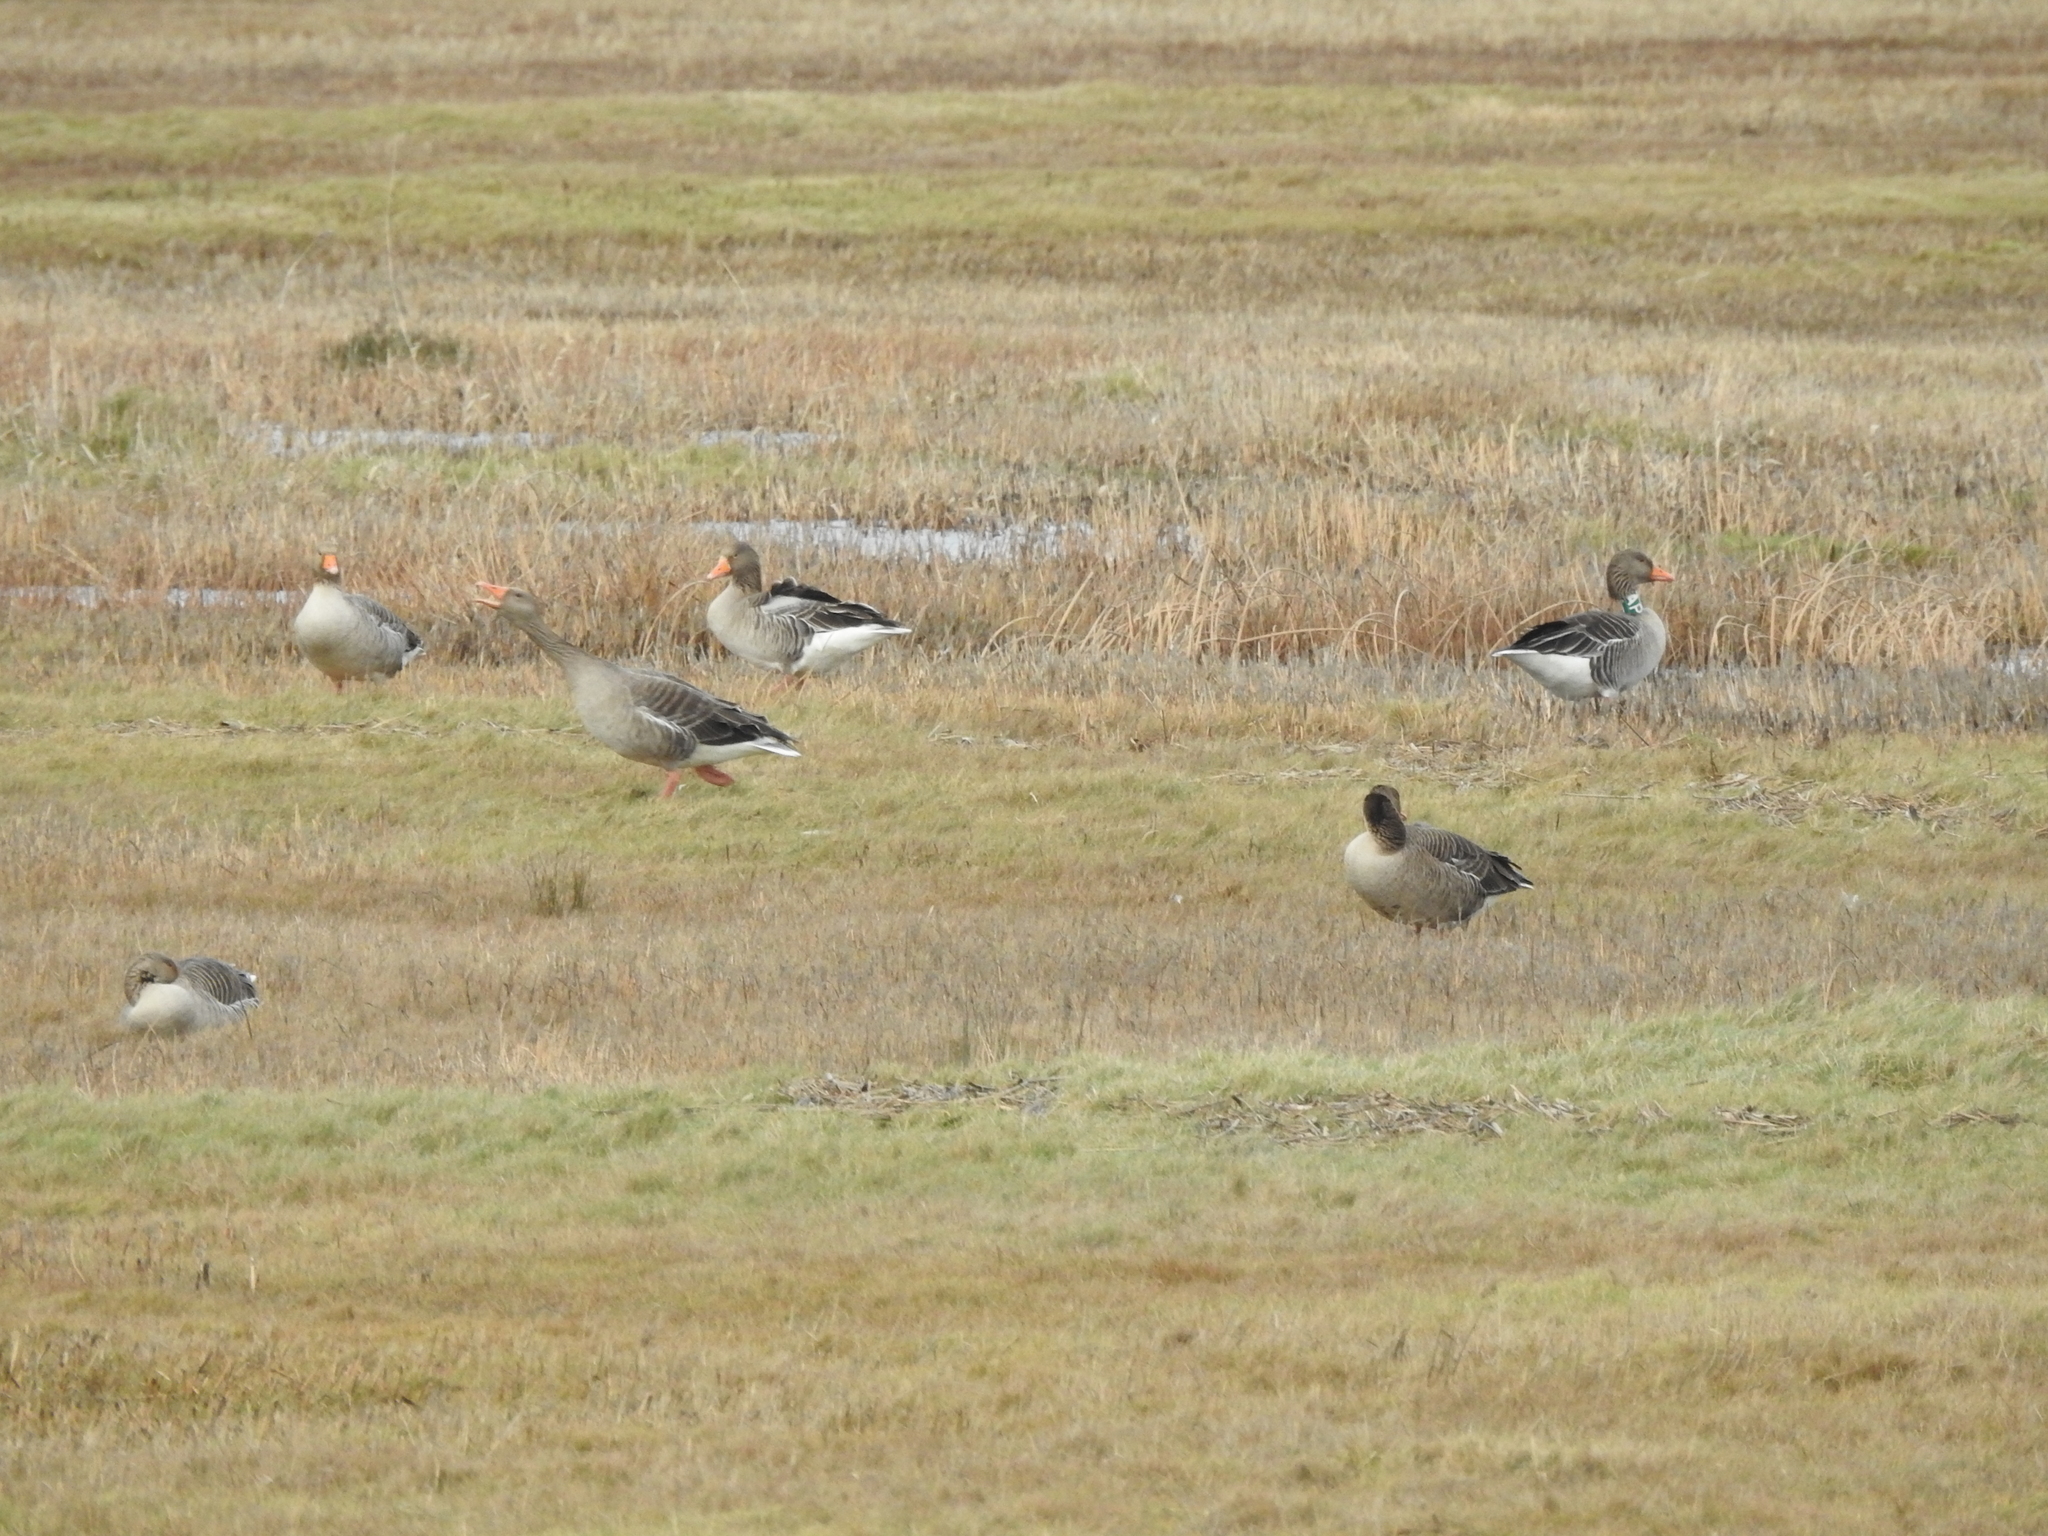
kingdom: Animalia
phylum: Chordata
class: Aves
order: Anseriformes
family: Anatidae
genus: Anser
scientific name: Anser anser
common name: Greylag goose
